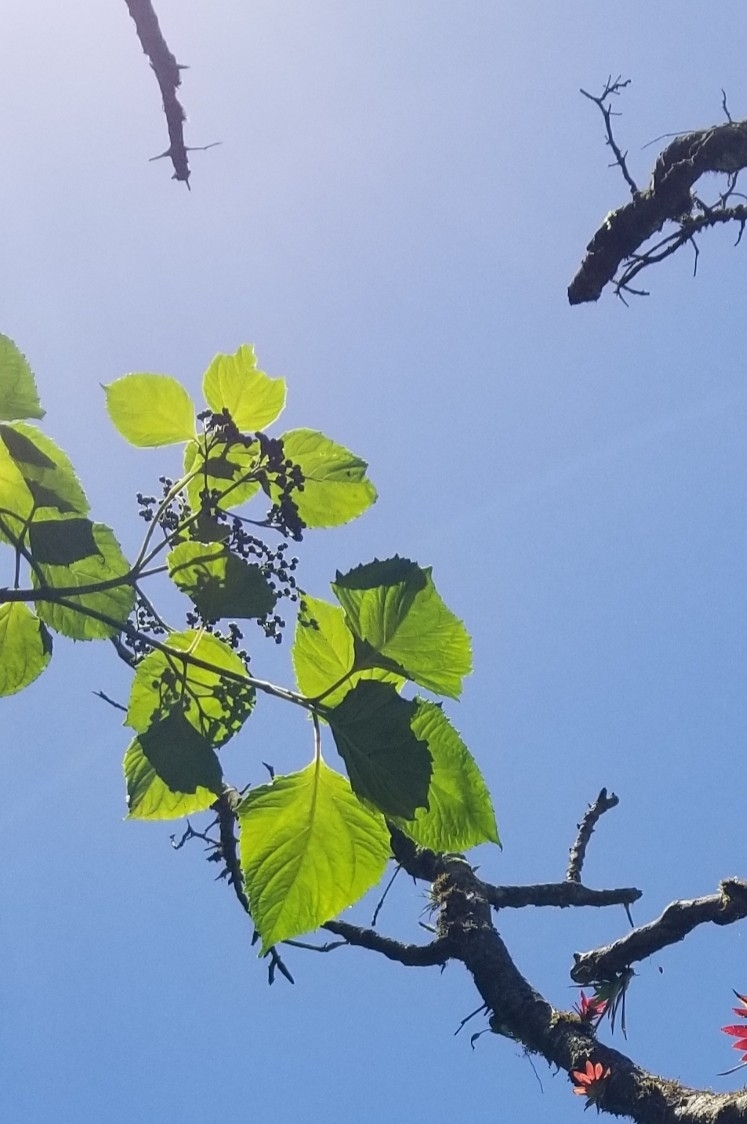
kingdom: Plantae
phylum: Tracheophyta
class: Magnoliopsida
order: Asterales
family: Asteraceae
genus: Clibadium
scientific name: Clibadium erosum
